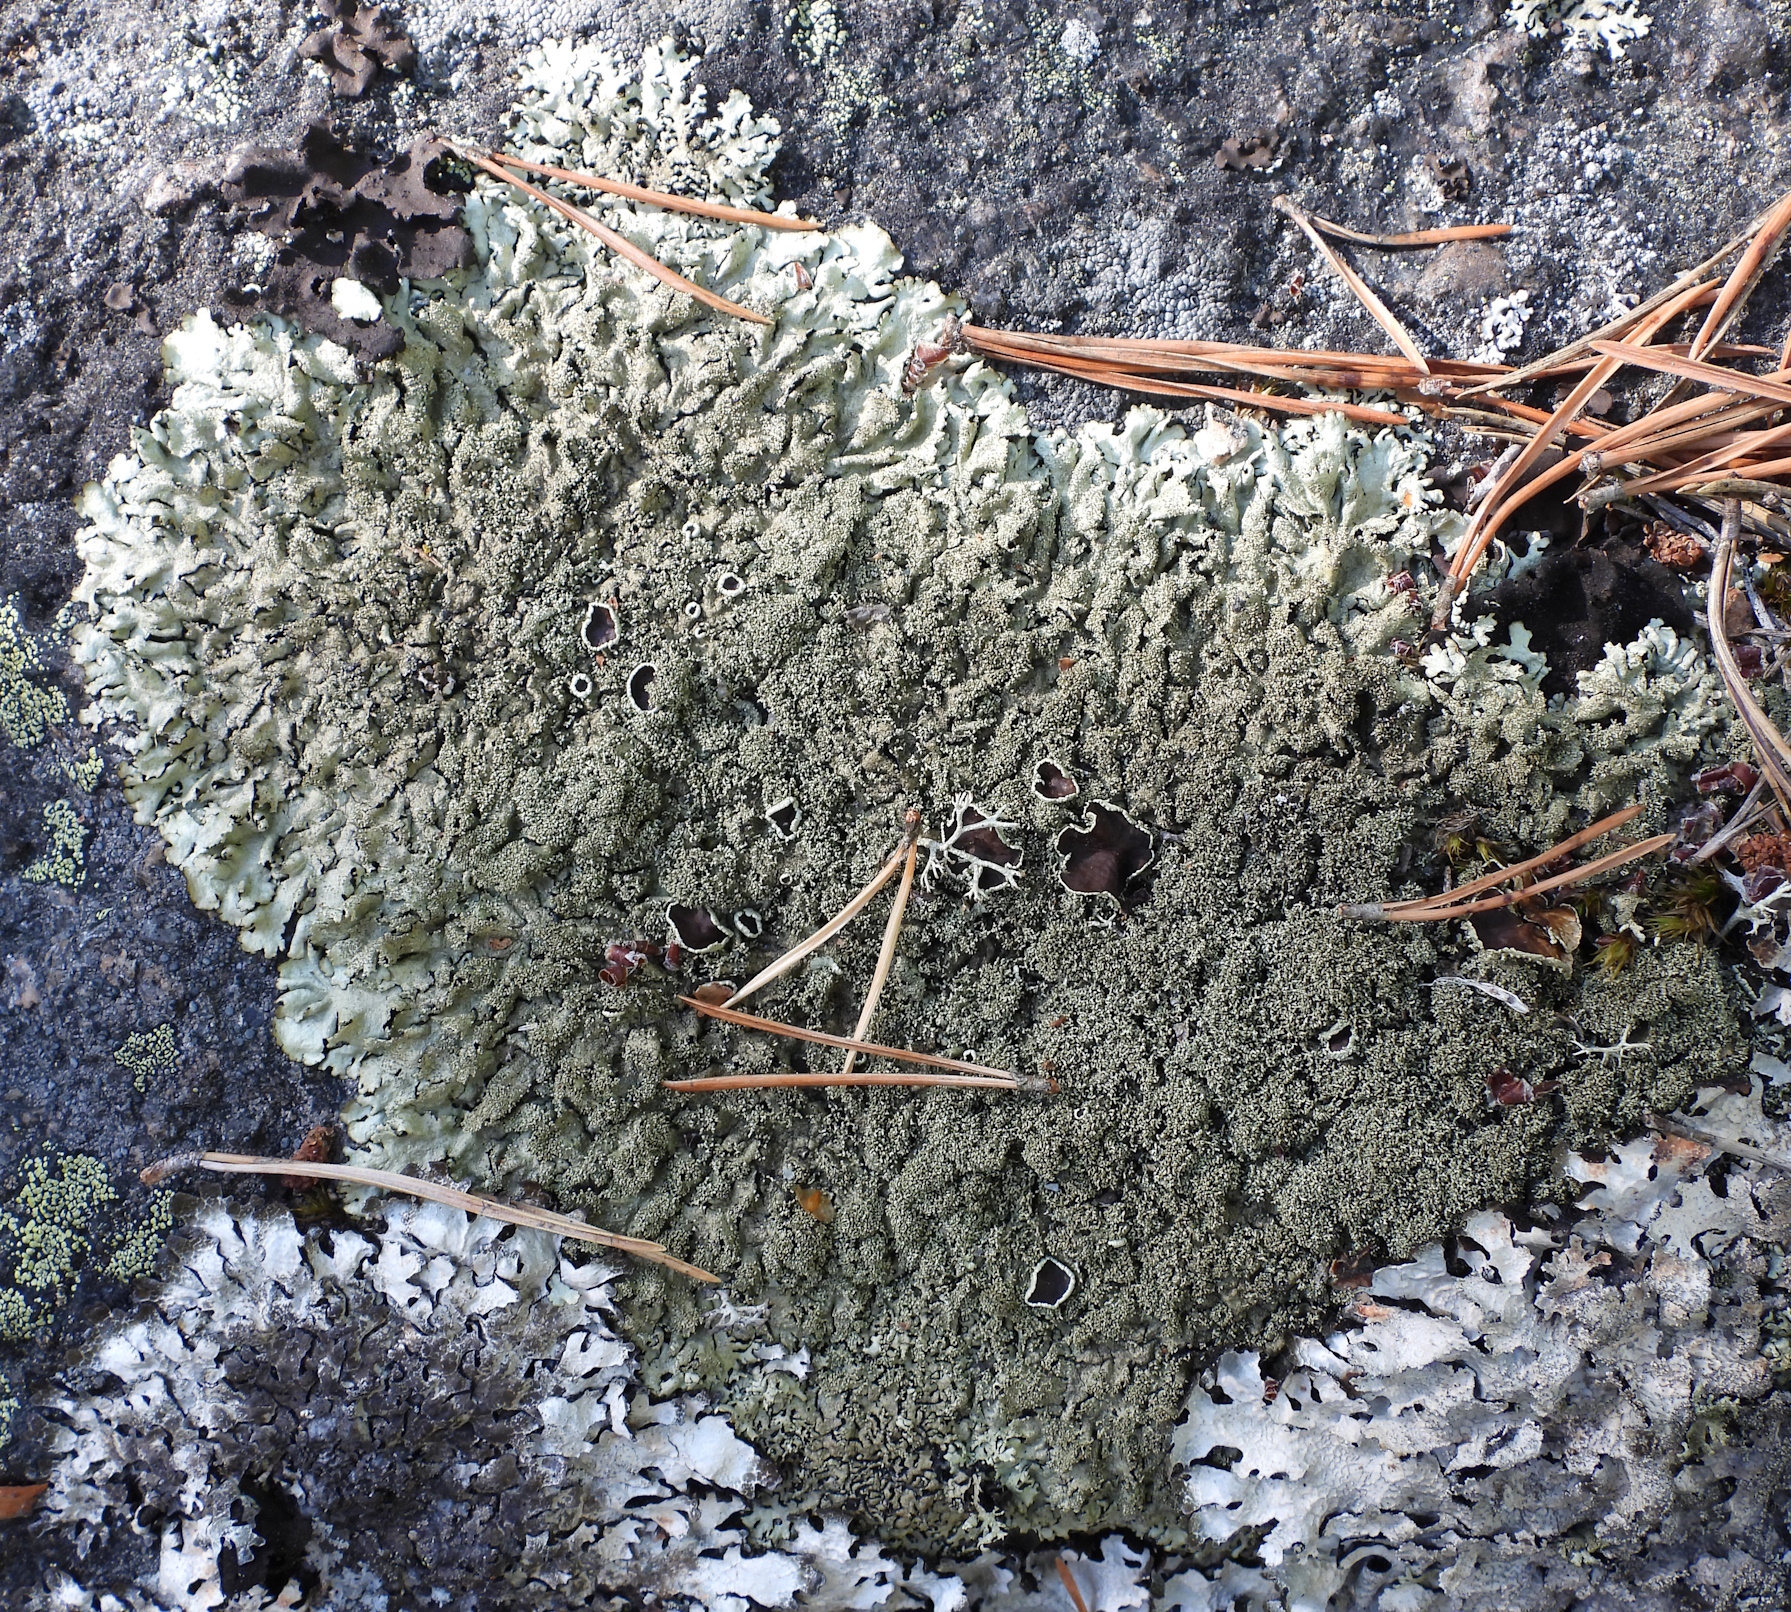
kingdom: Fungi
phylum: Ascomycota
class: Lecanoromycetes
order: Lecanorales
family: Parmeliaceae
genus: Xanthoparmelia
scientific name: Xanthoparmelia conspersa
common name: Peppered rock shield
